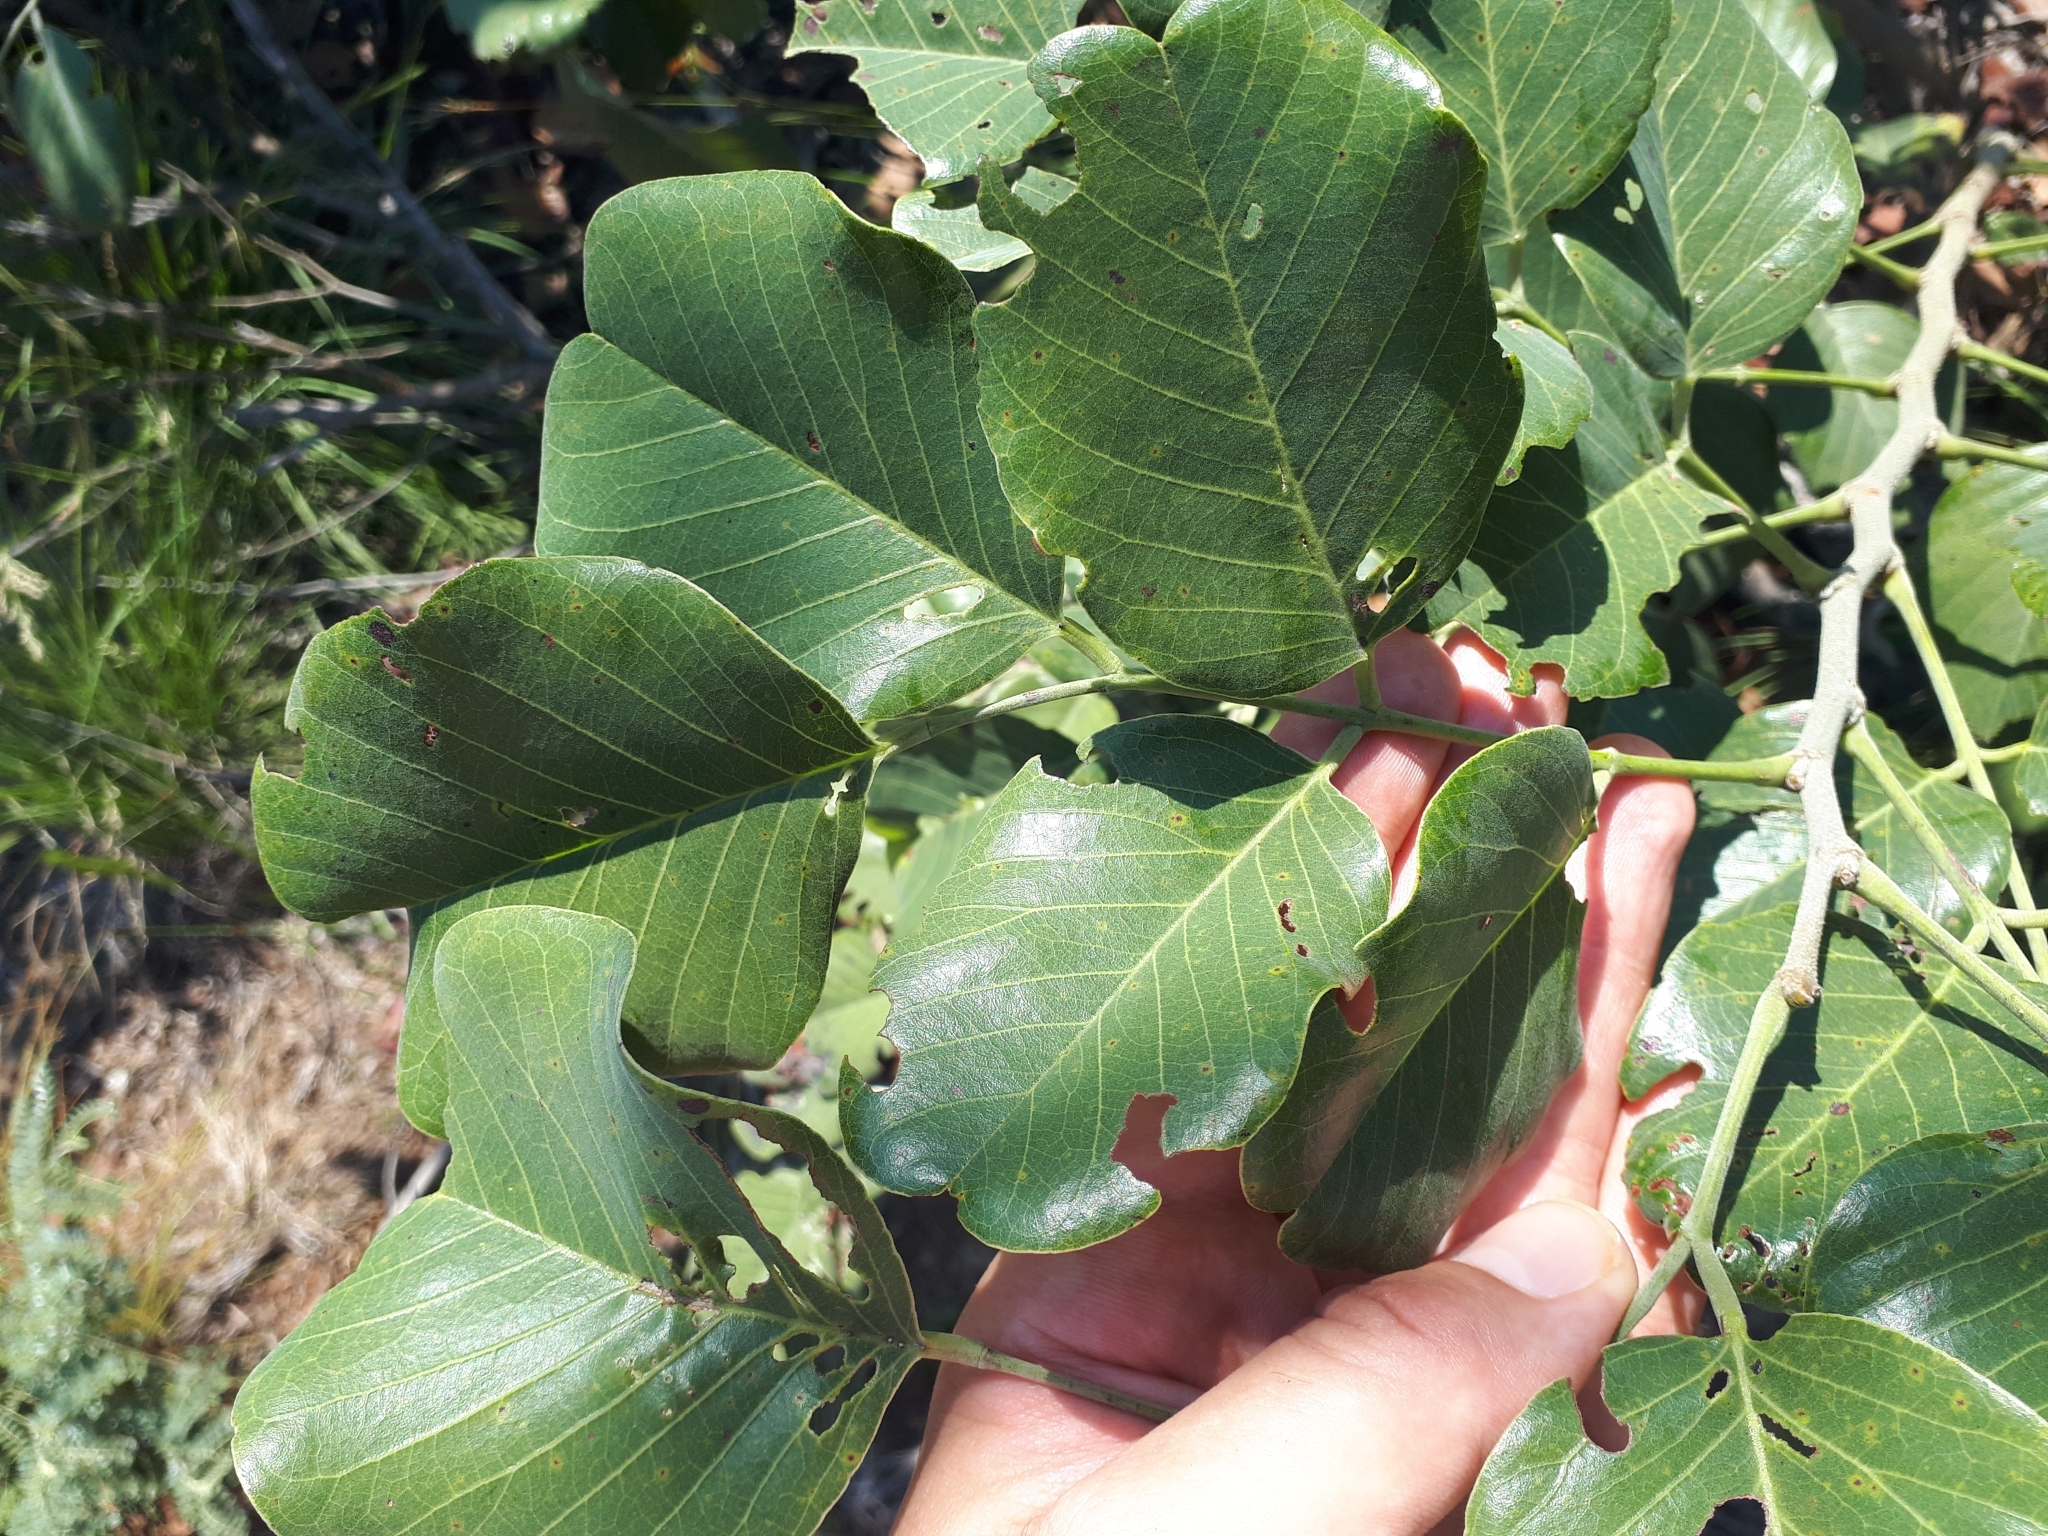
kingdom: Plantae
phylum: Tracheophyta
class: Magnoliopsida
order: Fabales
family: Fabaceae
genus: Pterocarpus
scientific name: Pterocarpus rotundifolius
